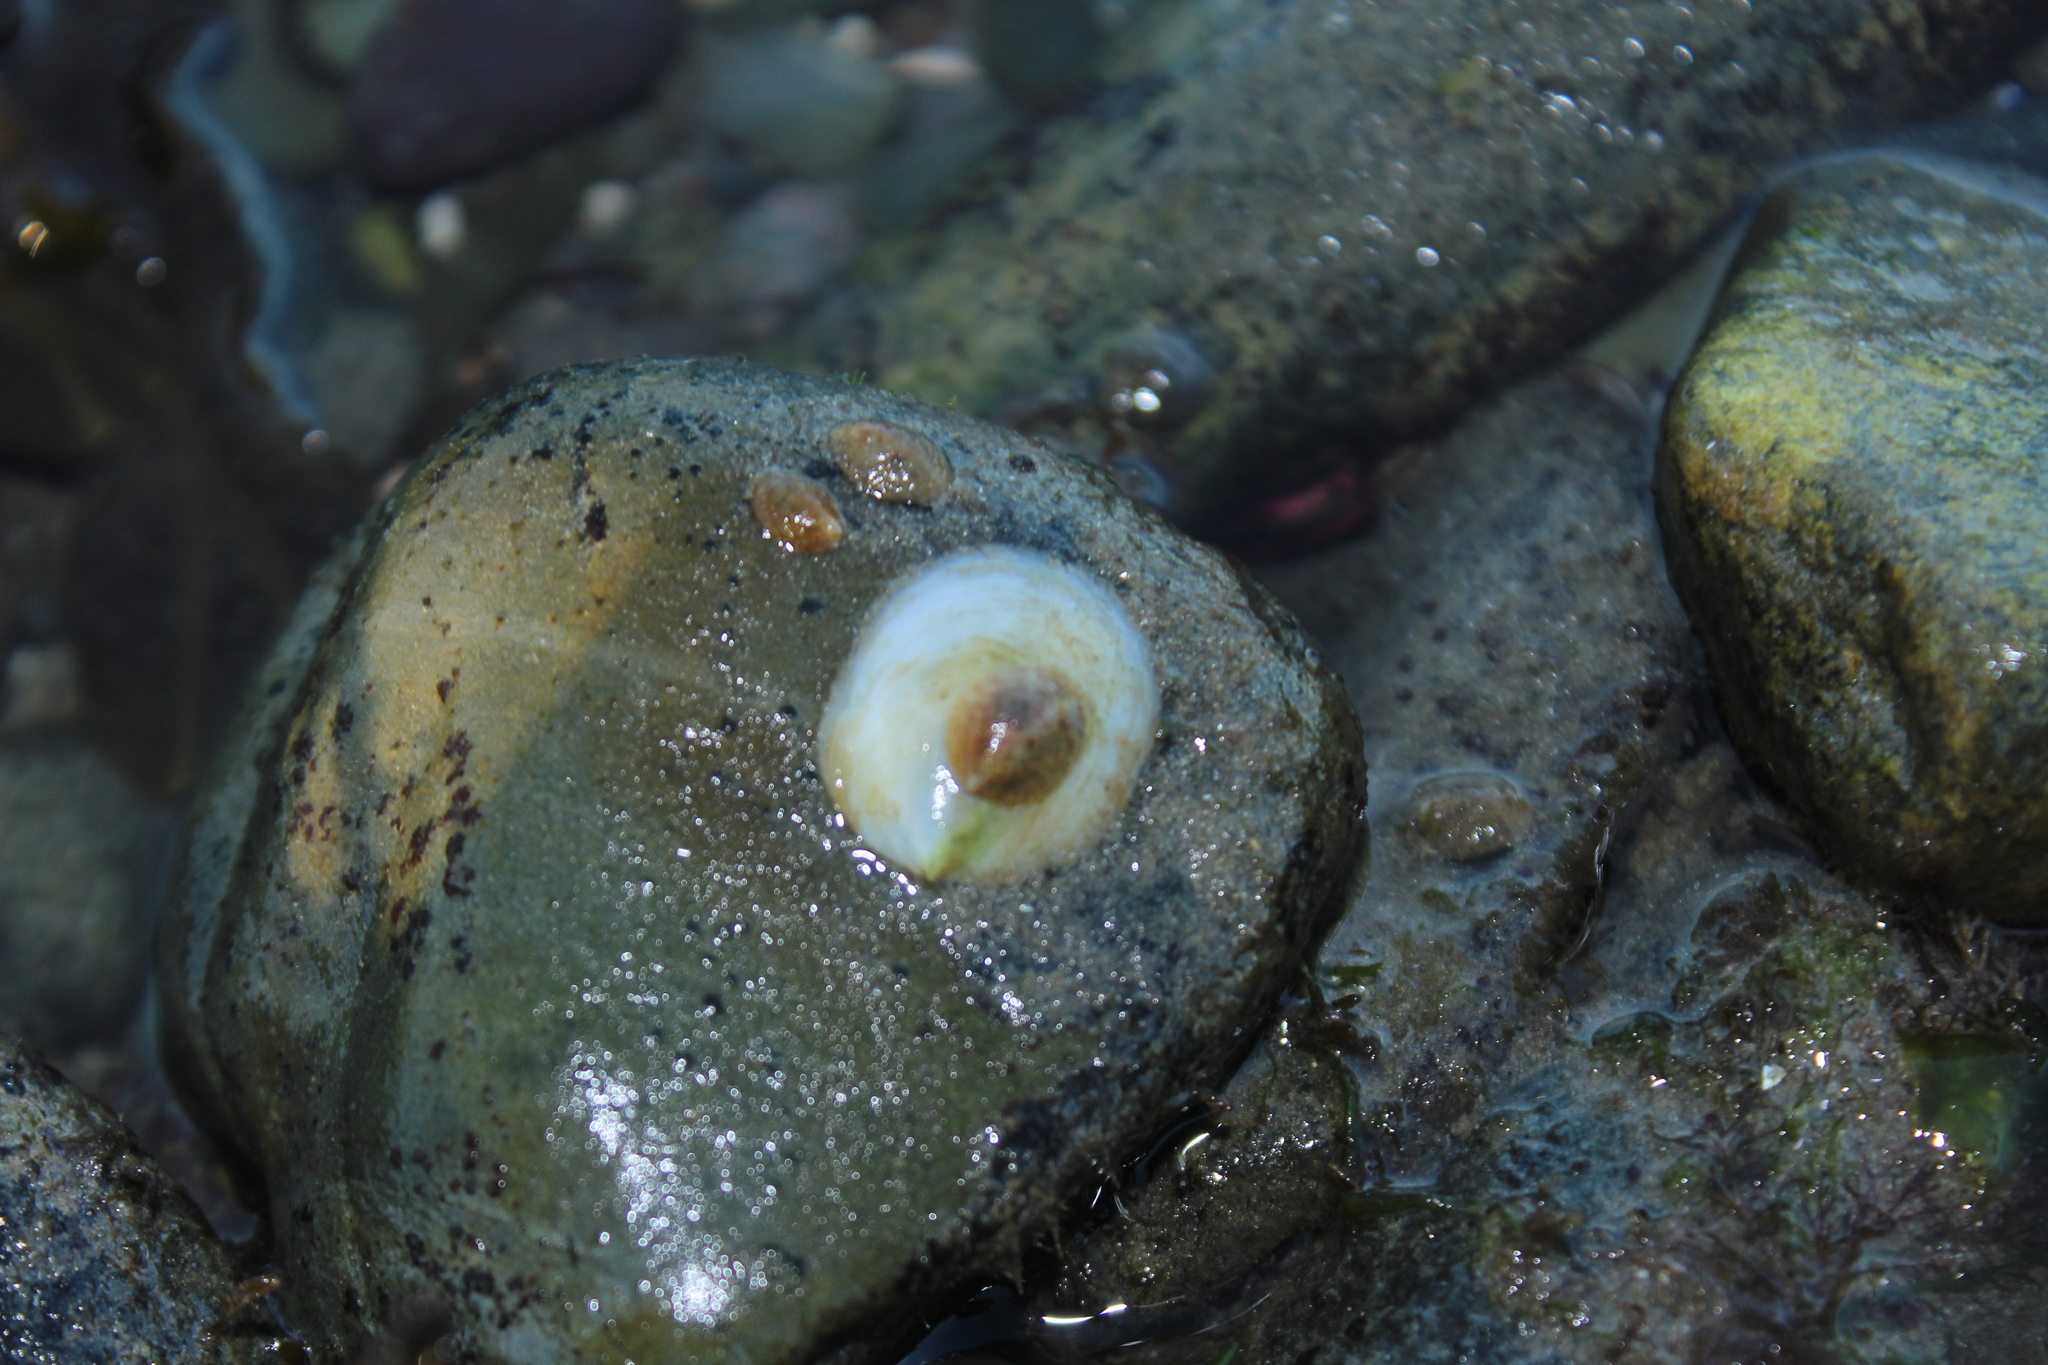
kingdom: Animalia
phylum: Mollusca
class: Gastropoda
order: Littorinimorpha
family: Calyptraeidae
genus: Crepidula
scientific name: Crepidula
